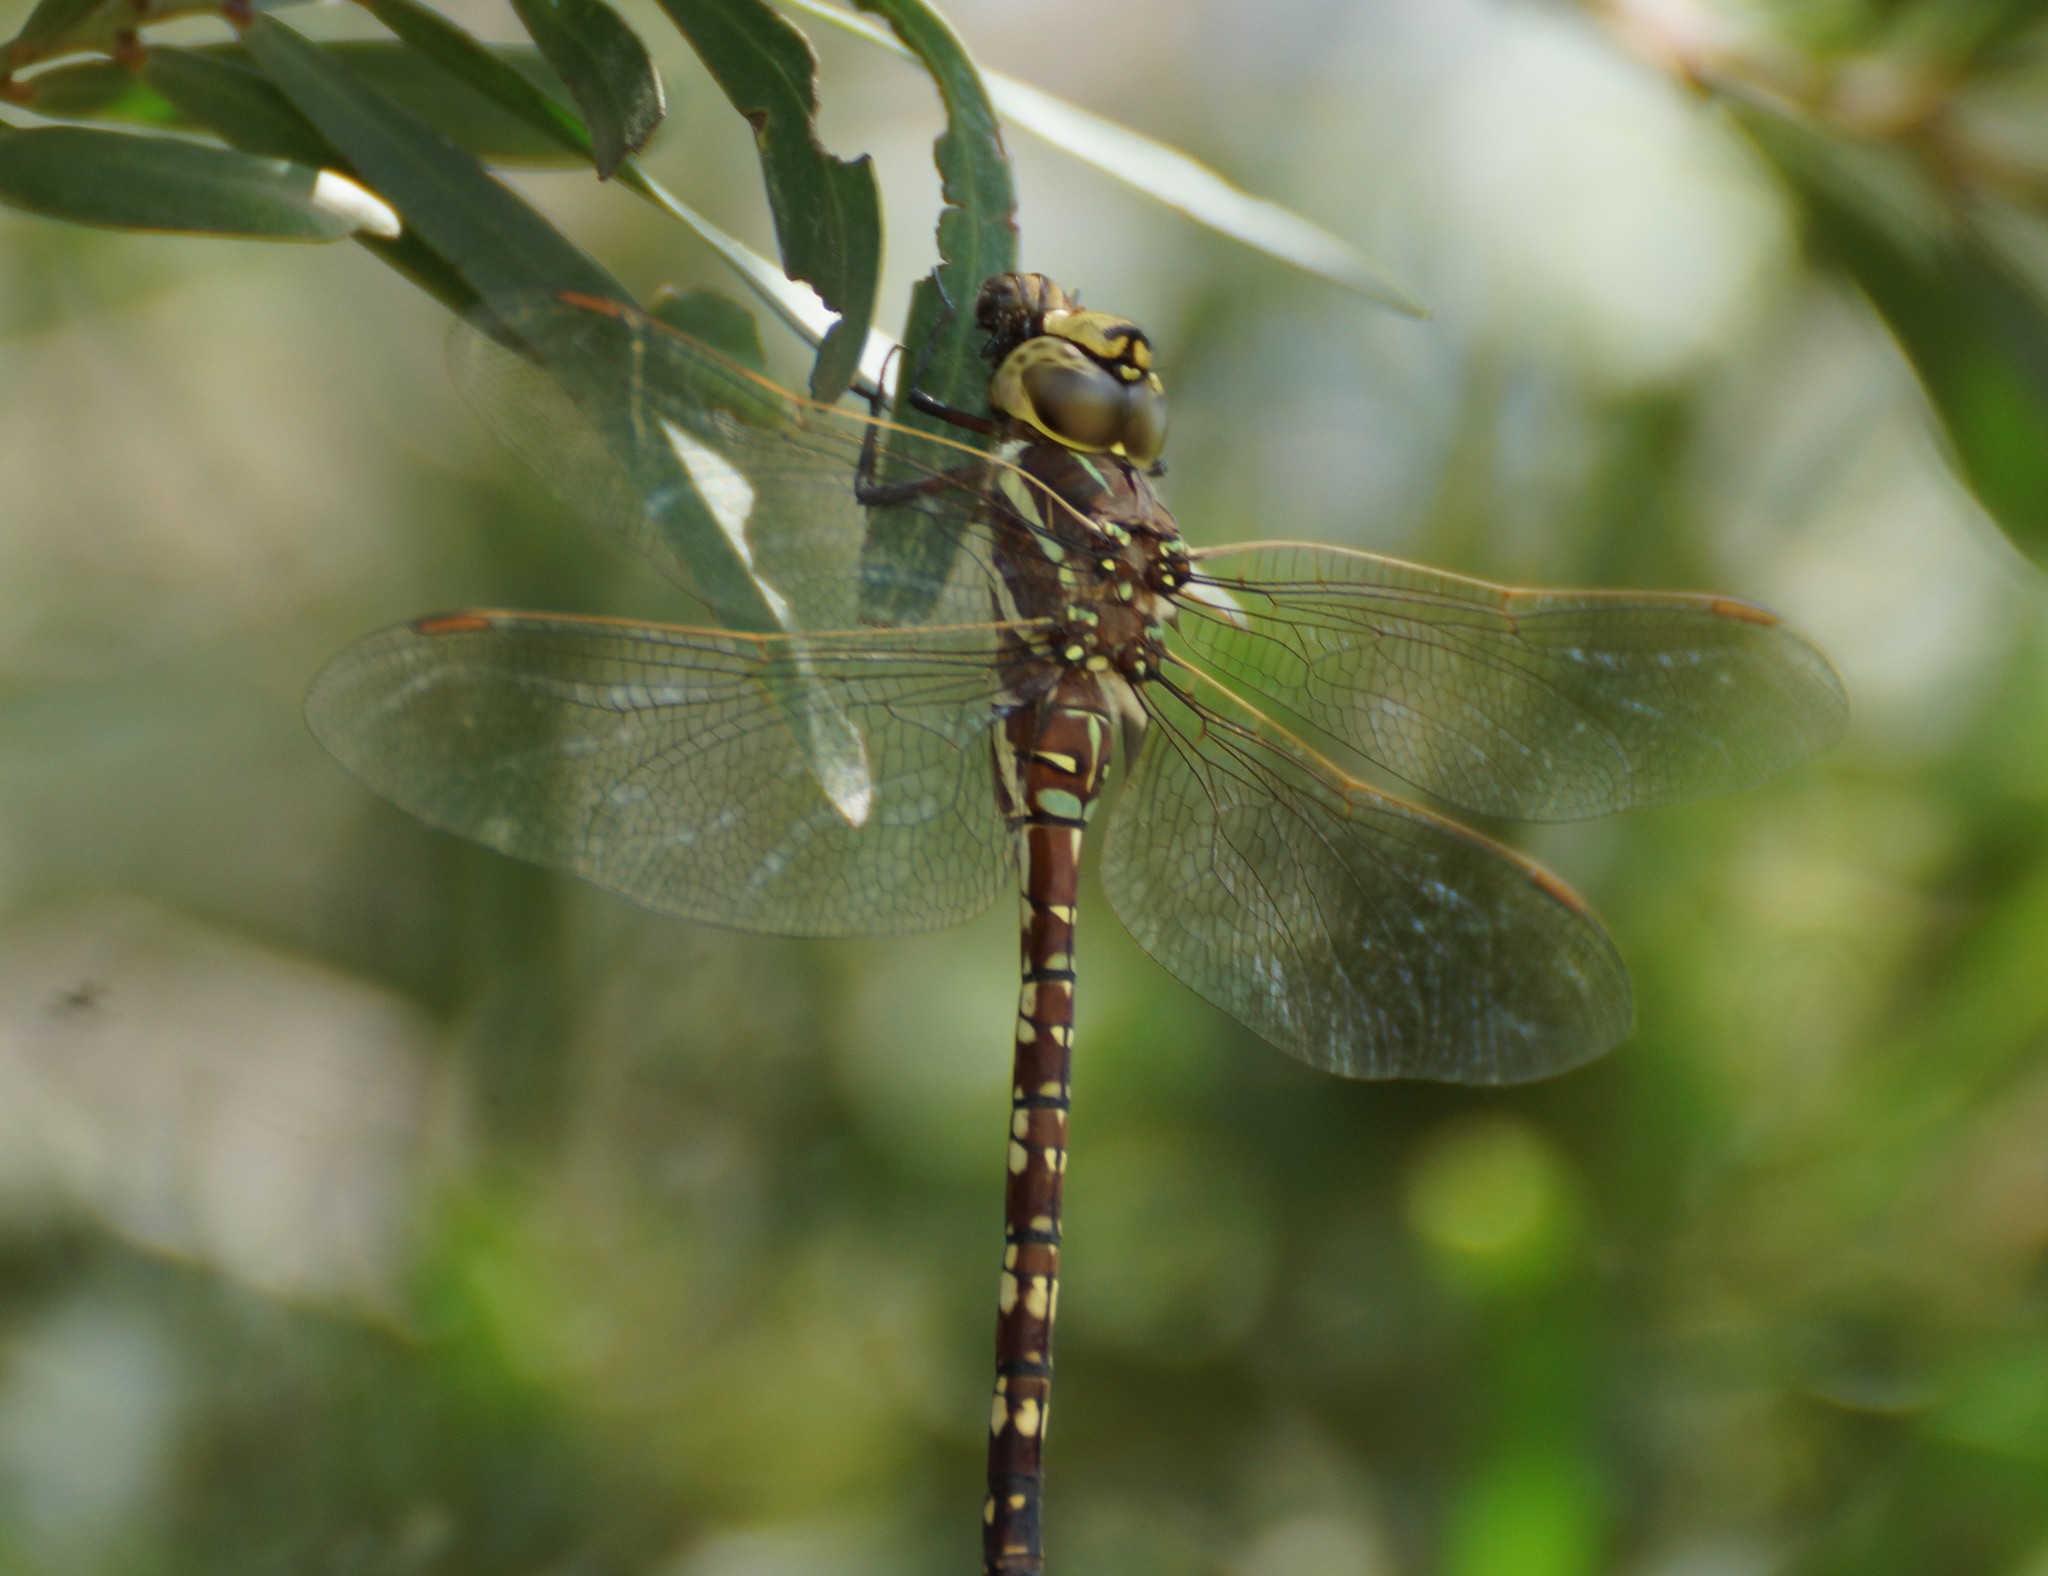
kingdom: Animalia
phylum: Arthropoda
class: Insecta
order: Odonata
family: Aeshnidae
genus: Aeshna
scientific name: Aeshna brevistyla
